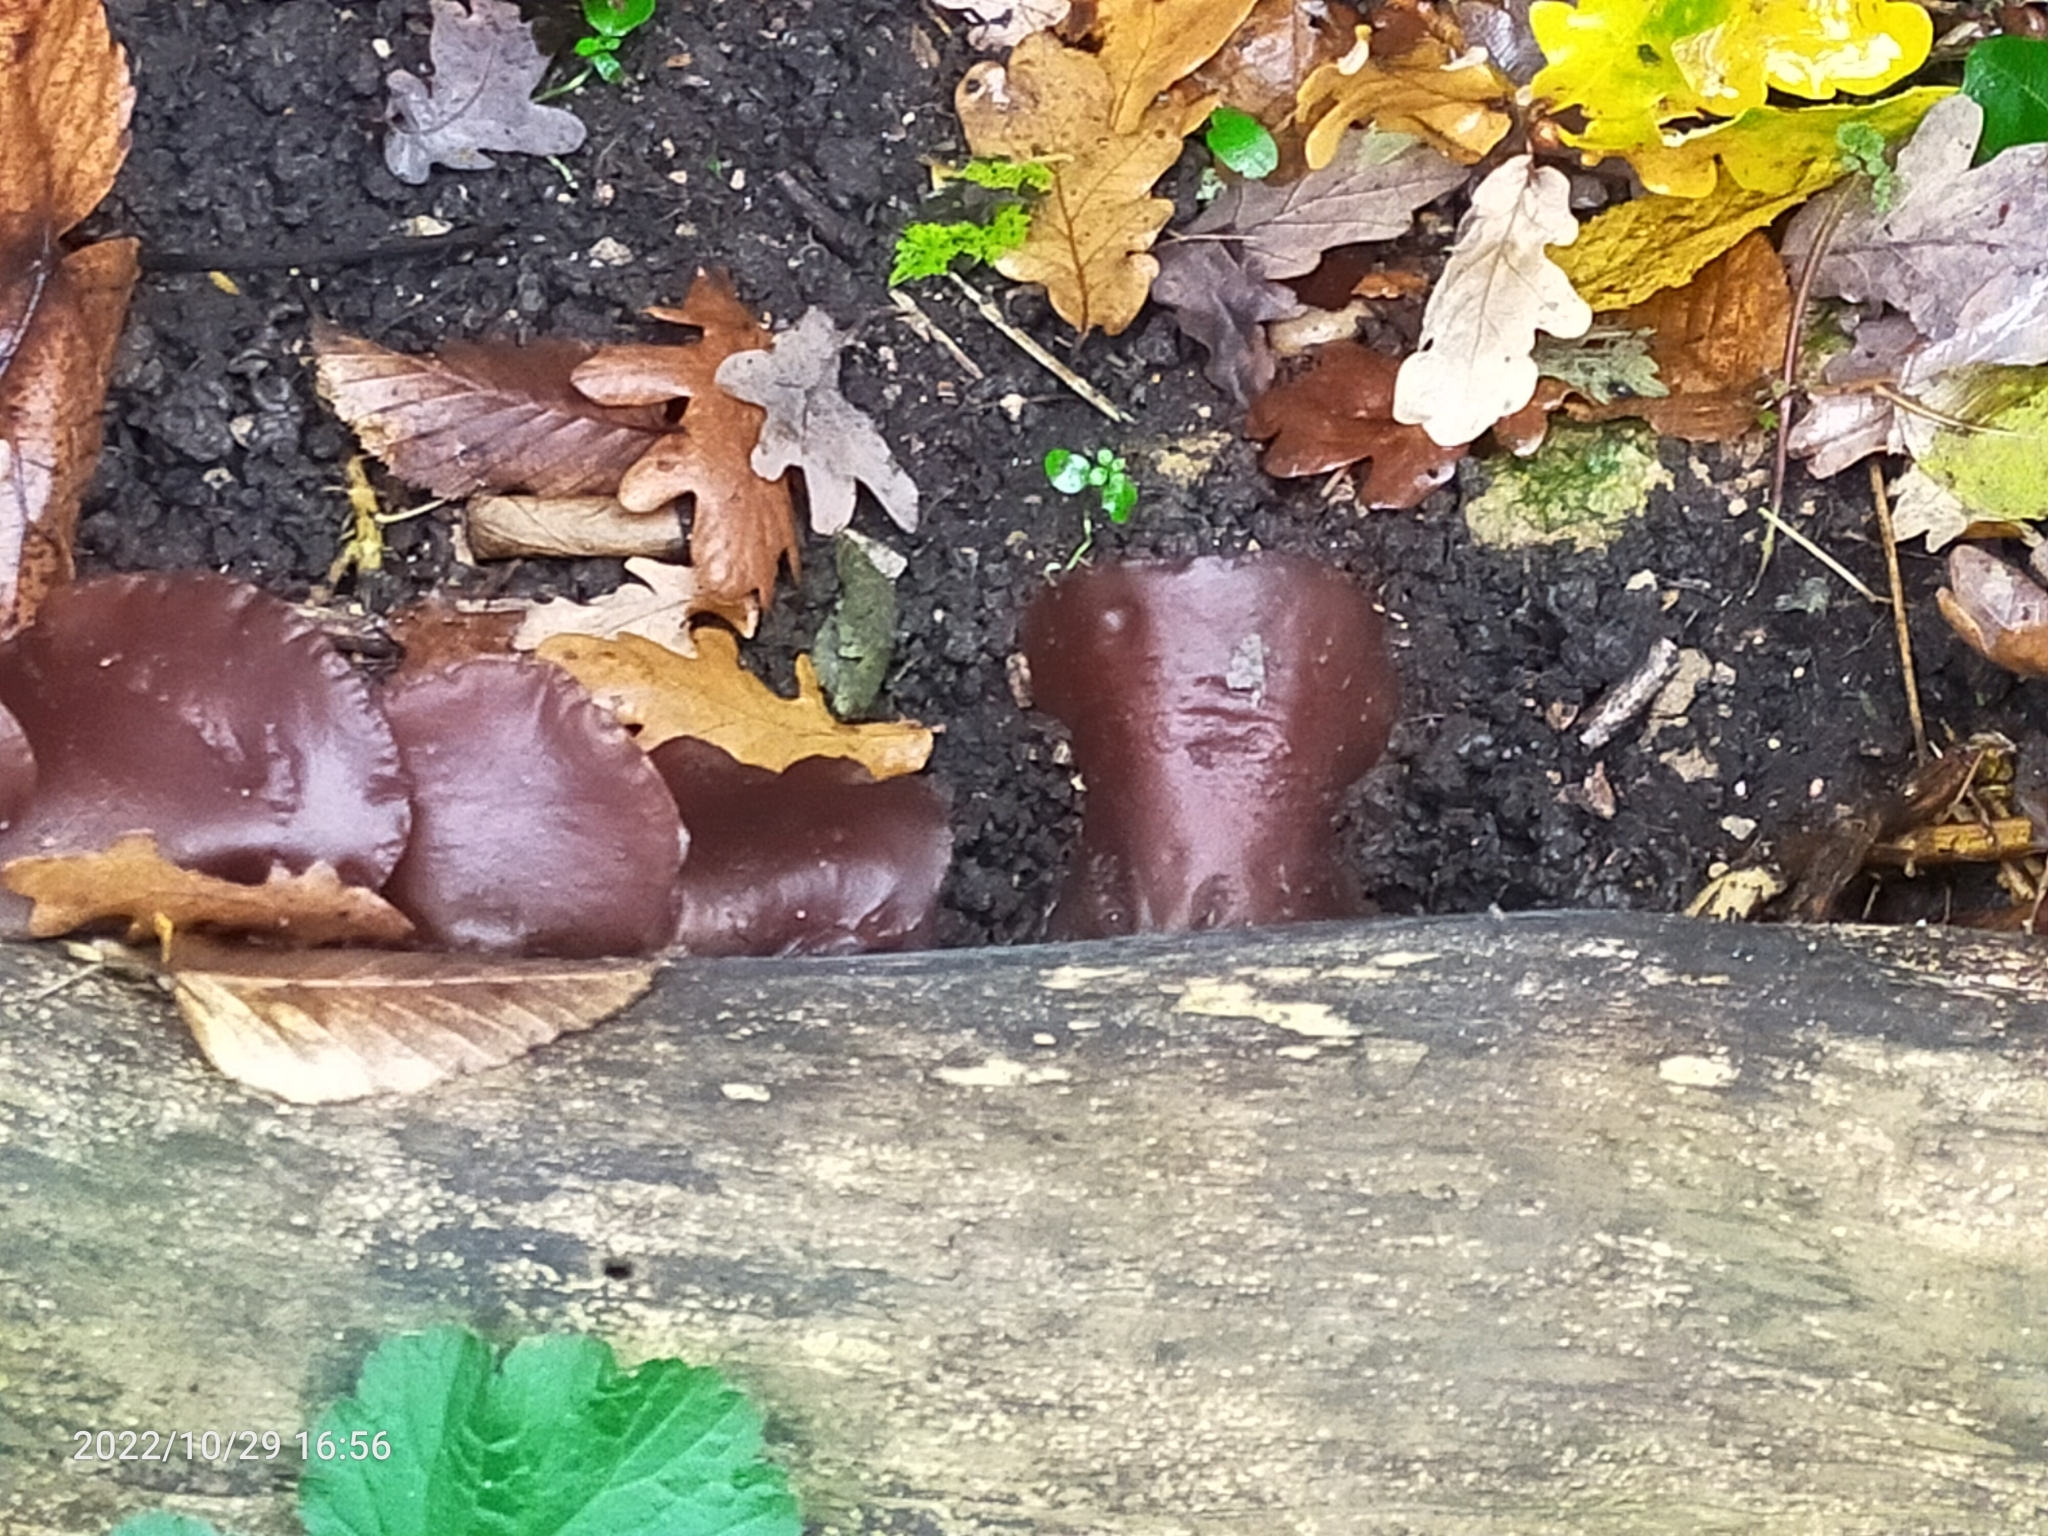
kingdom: Fungi
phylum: Basidiomycota
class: Agaricomycetes
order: Auriculariales
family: Auriculariaceae
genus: Auricularia
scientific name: Auricularia auricula-judae
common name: Jelly ear
